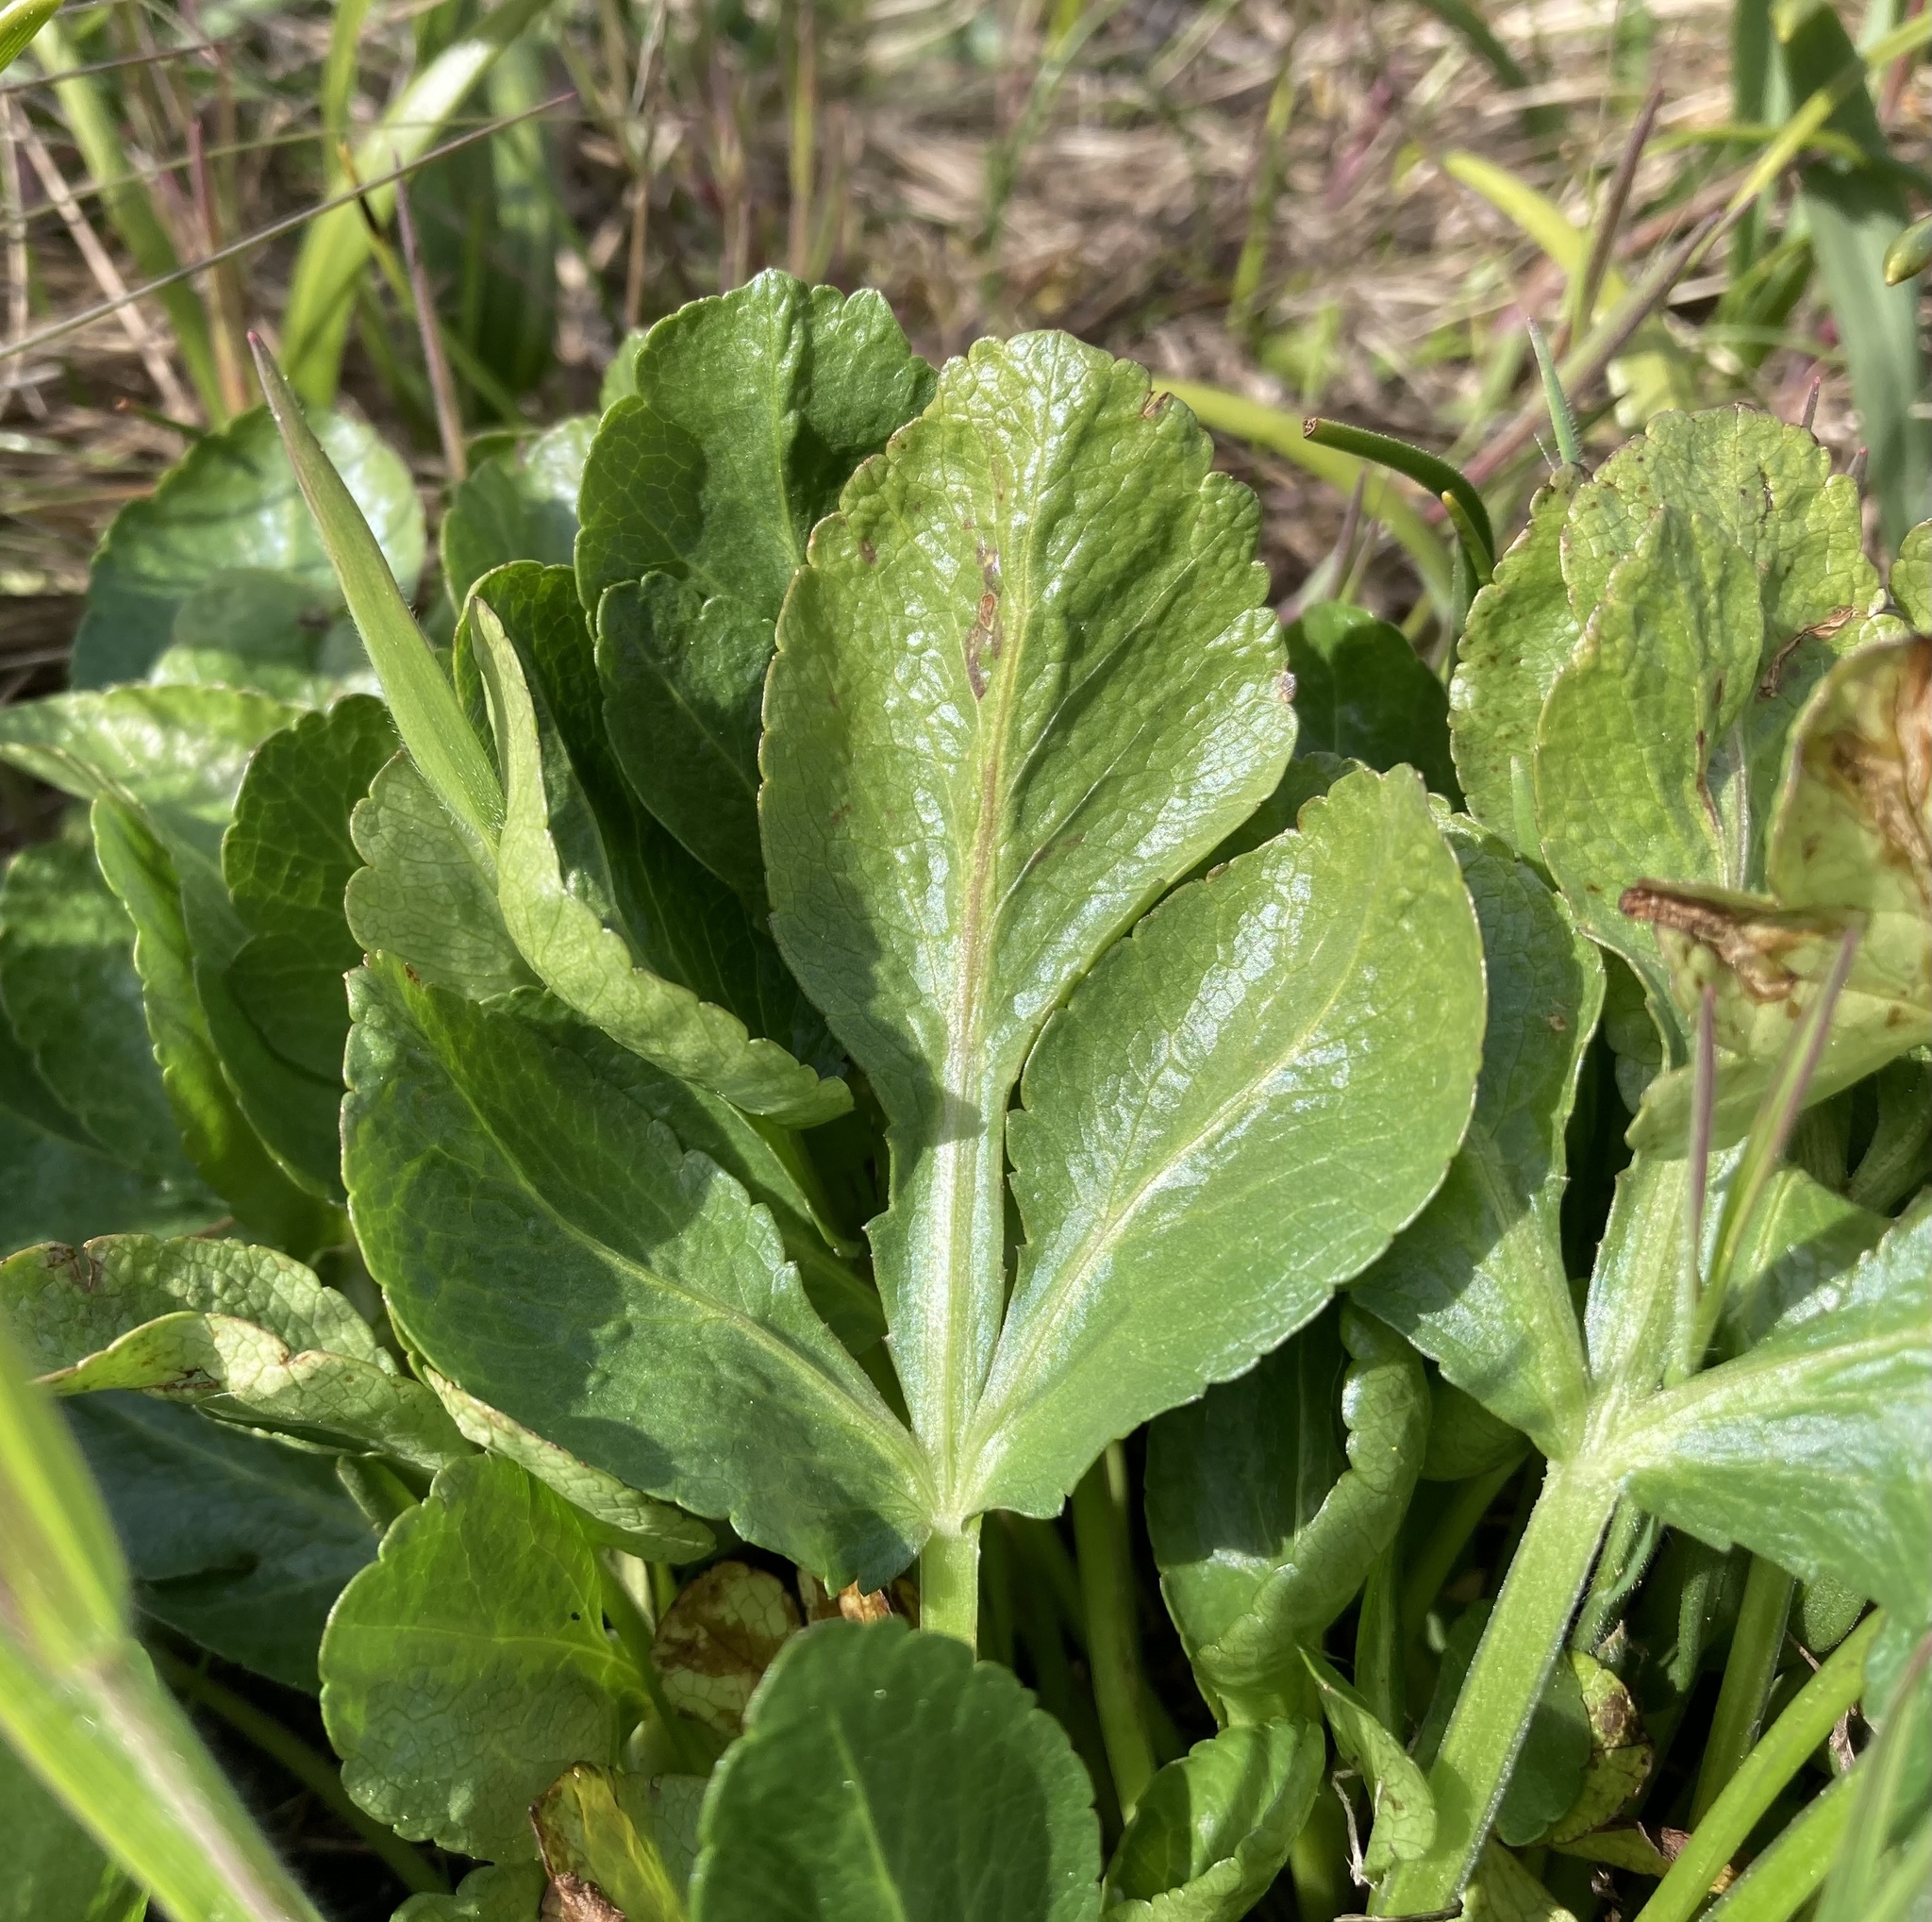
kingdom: Plantae
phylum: Tracheophyta
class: Magnoliopsida
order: Apiales
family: Apiaceae
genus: Sanicula
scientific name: Sanicula bipinnatifida
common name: Shoe-buttons
